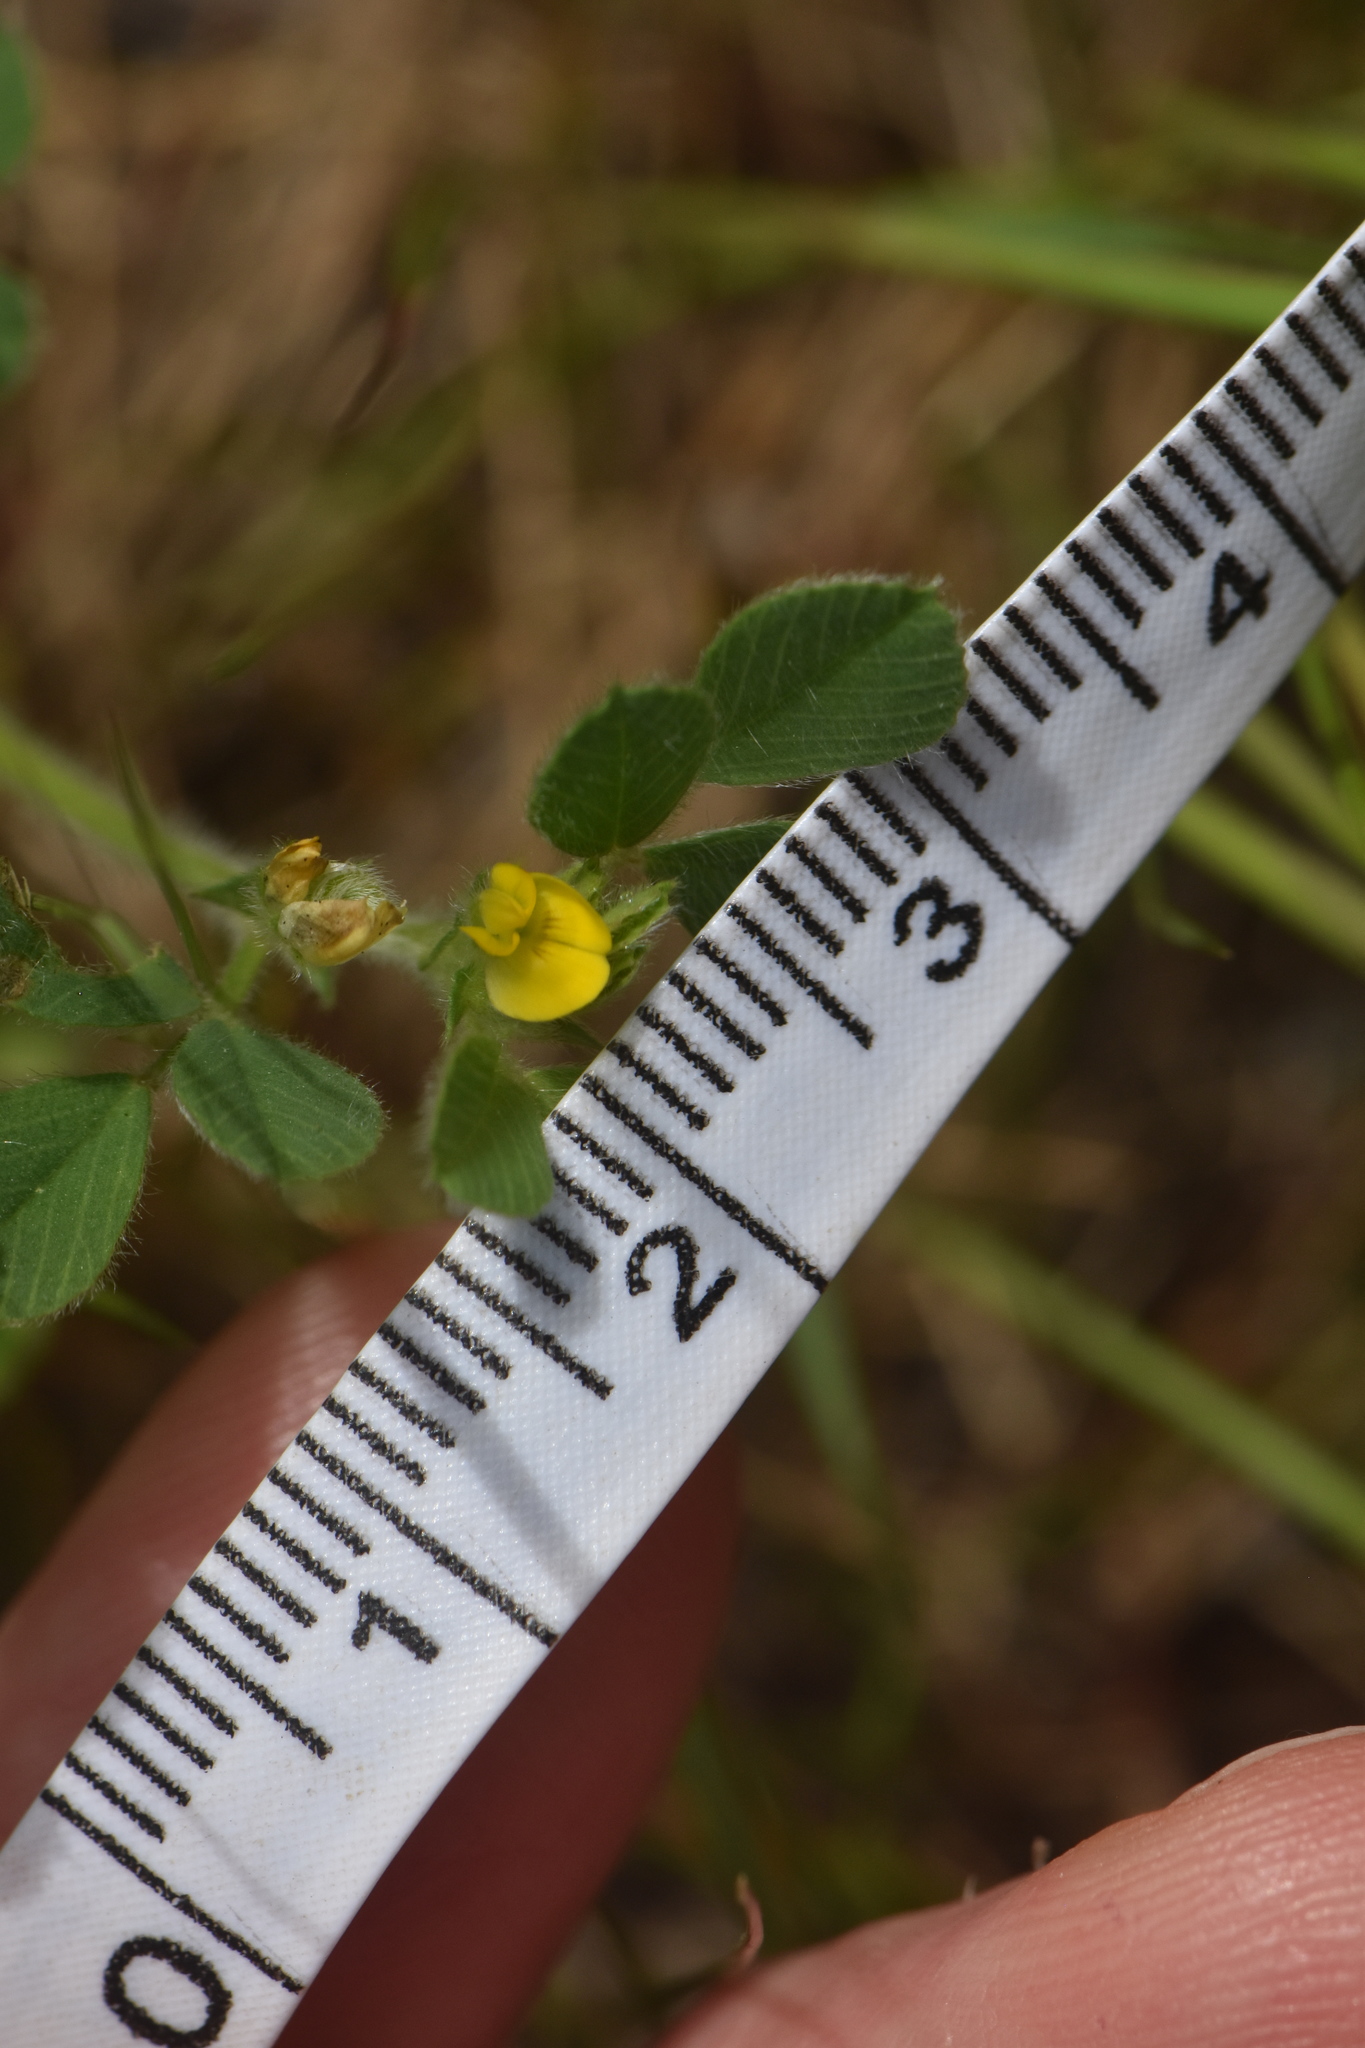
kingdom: Plantae
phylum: Tracheophyta
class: Magnoliopsida
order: Fabales
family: Fabaceae
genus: Medicago
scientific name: Medicago minima
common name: Little bur-clover
